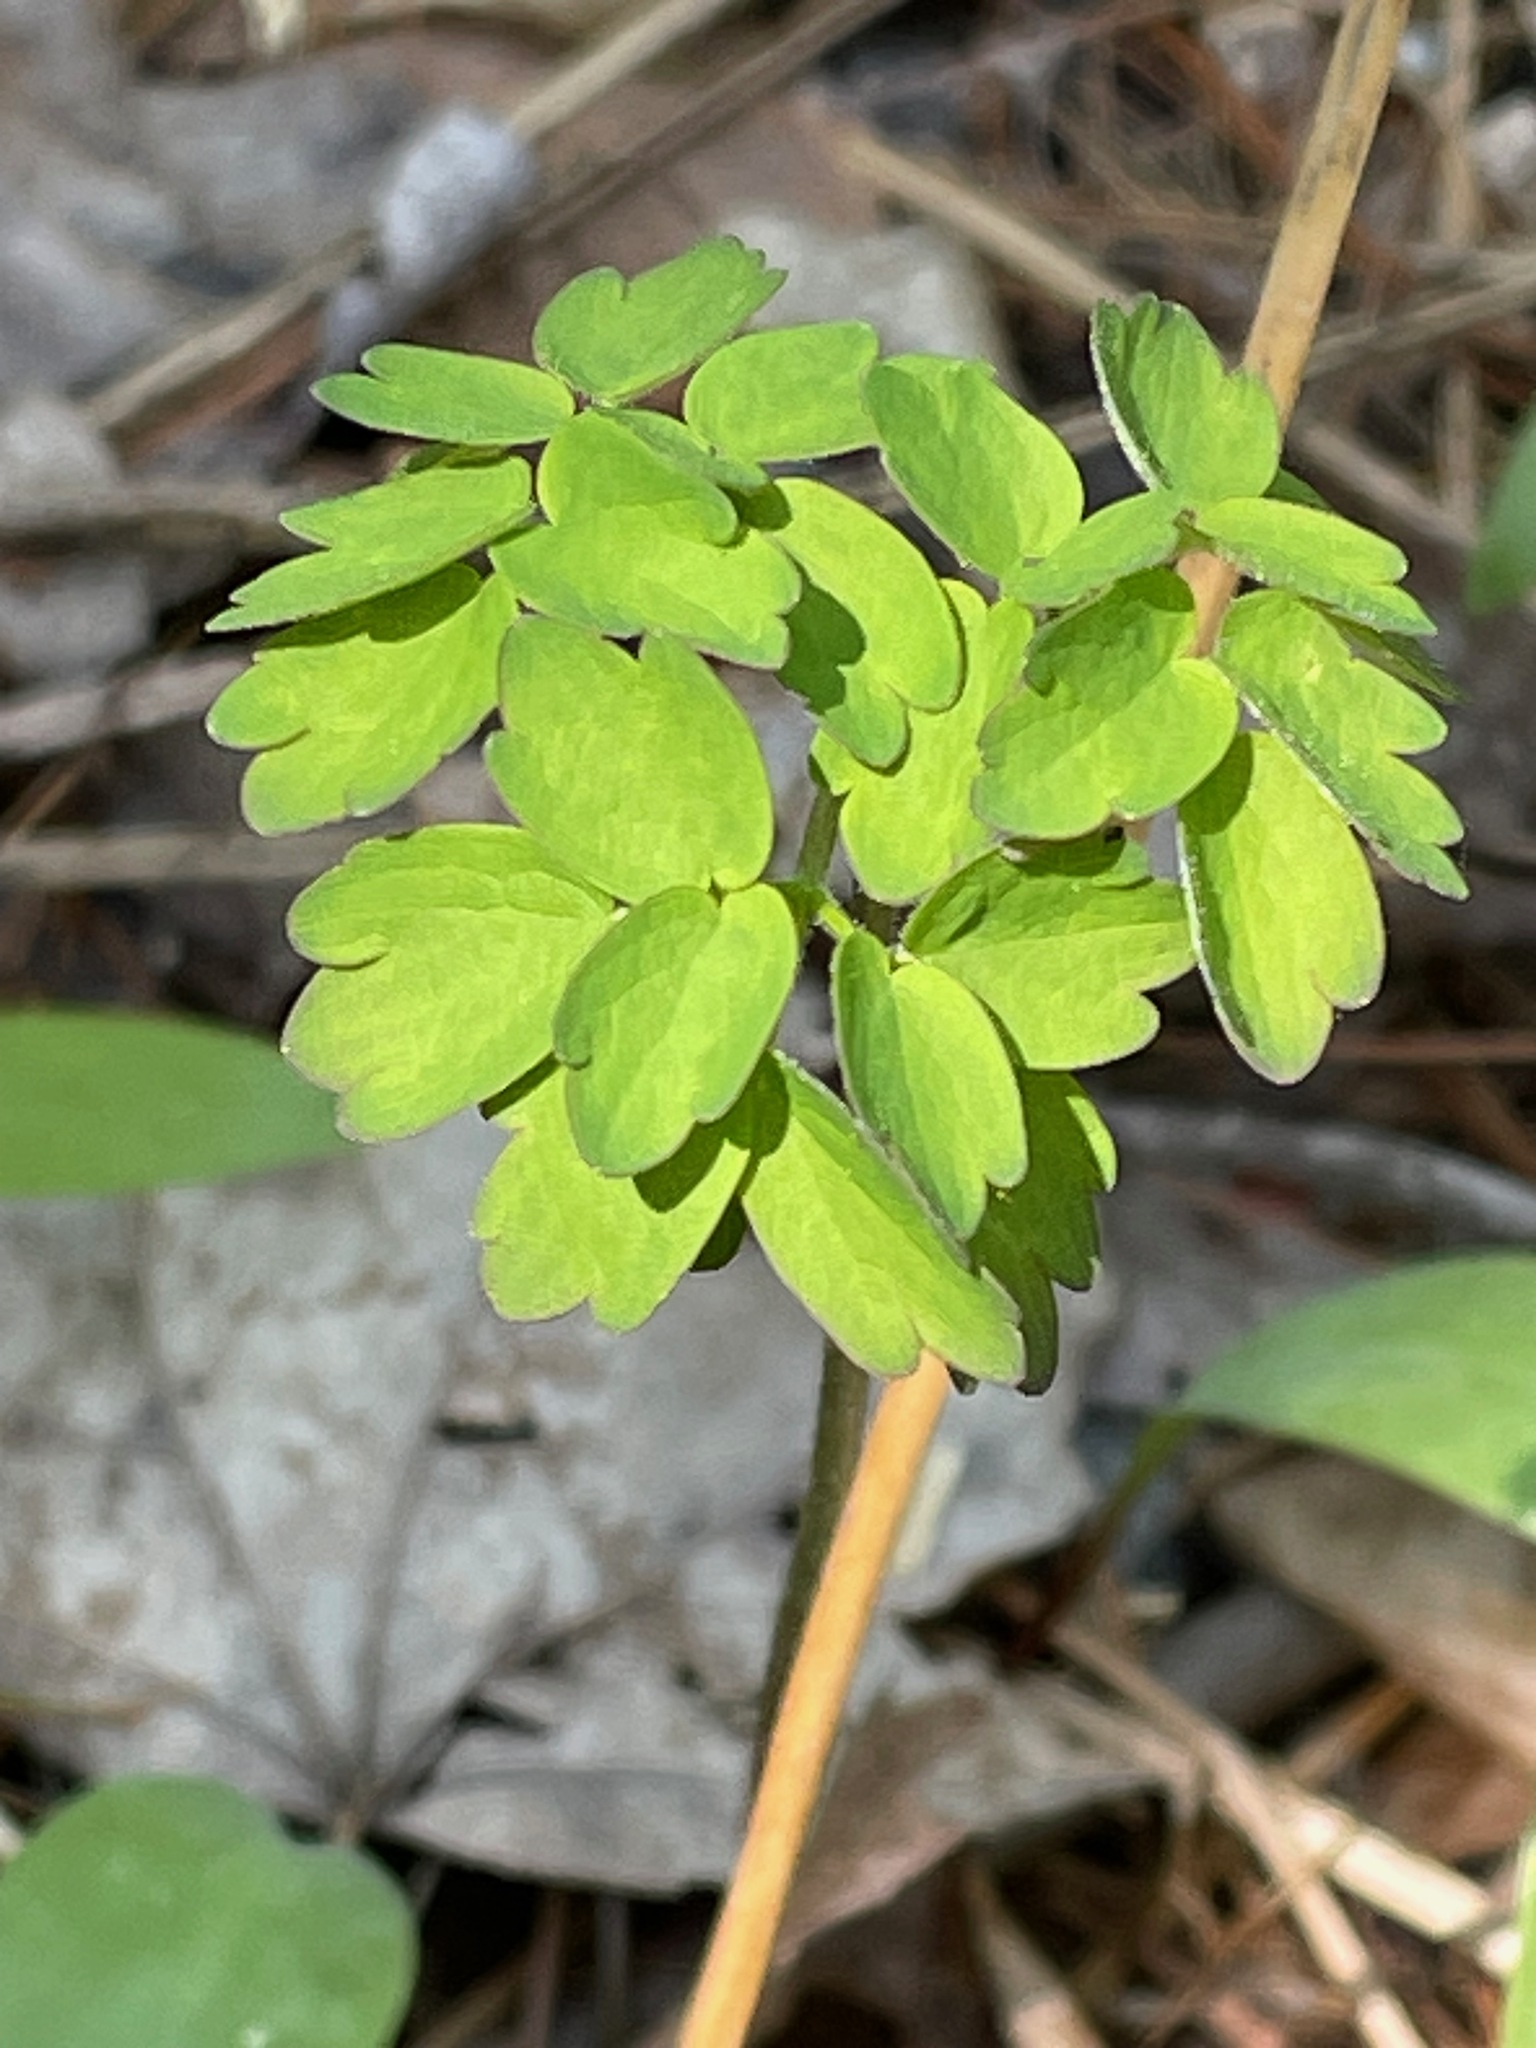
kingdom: Plantae
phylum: Tracheophyta
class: Magnoliopsida
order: Ranunculales
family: Ranunculaceae
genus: Thalictrum
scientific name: Thalictrum pubescens
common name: King-of-the-meadow
